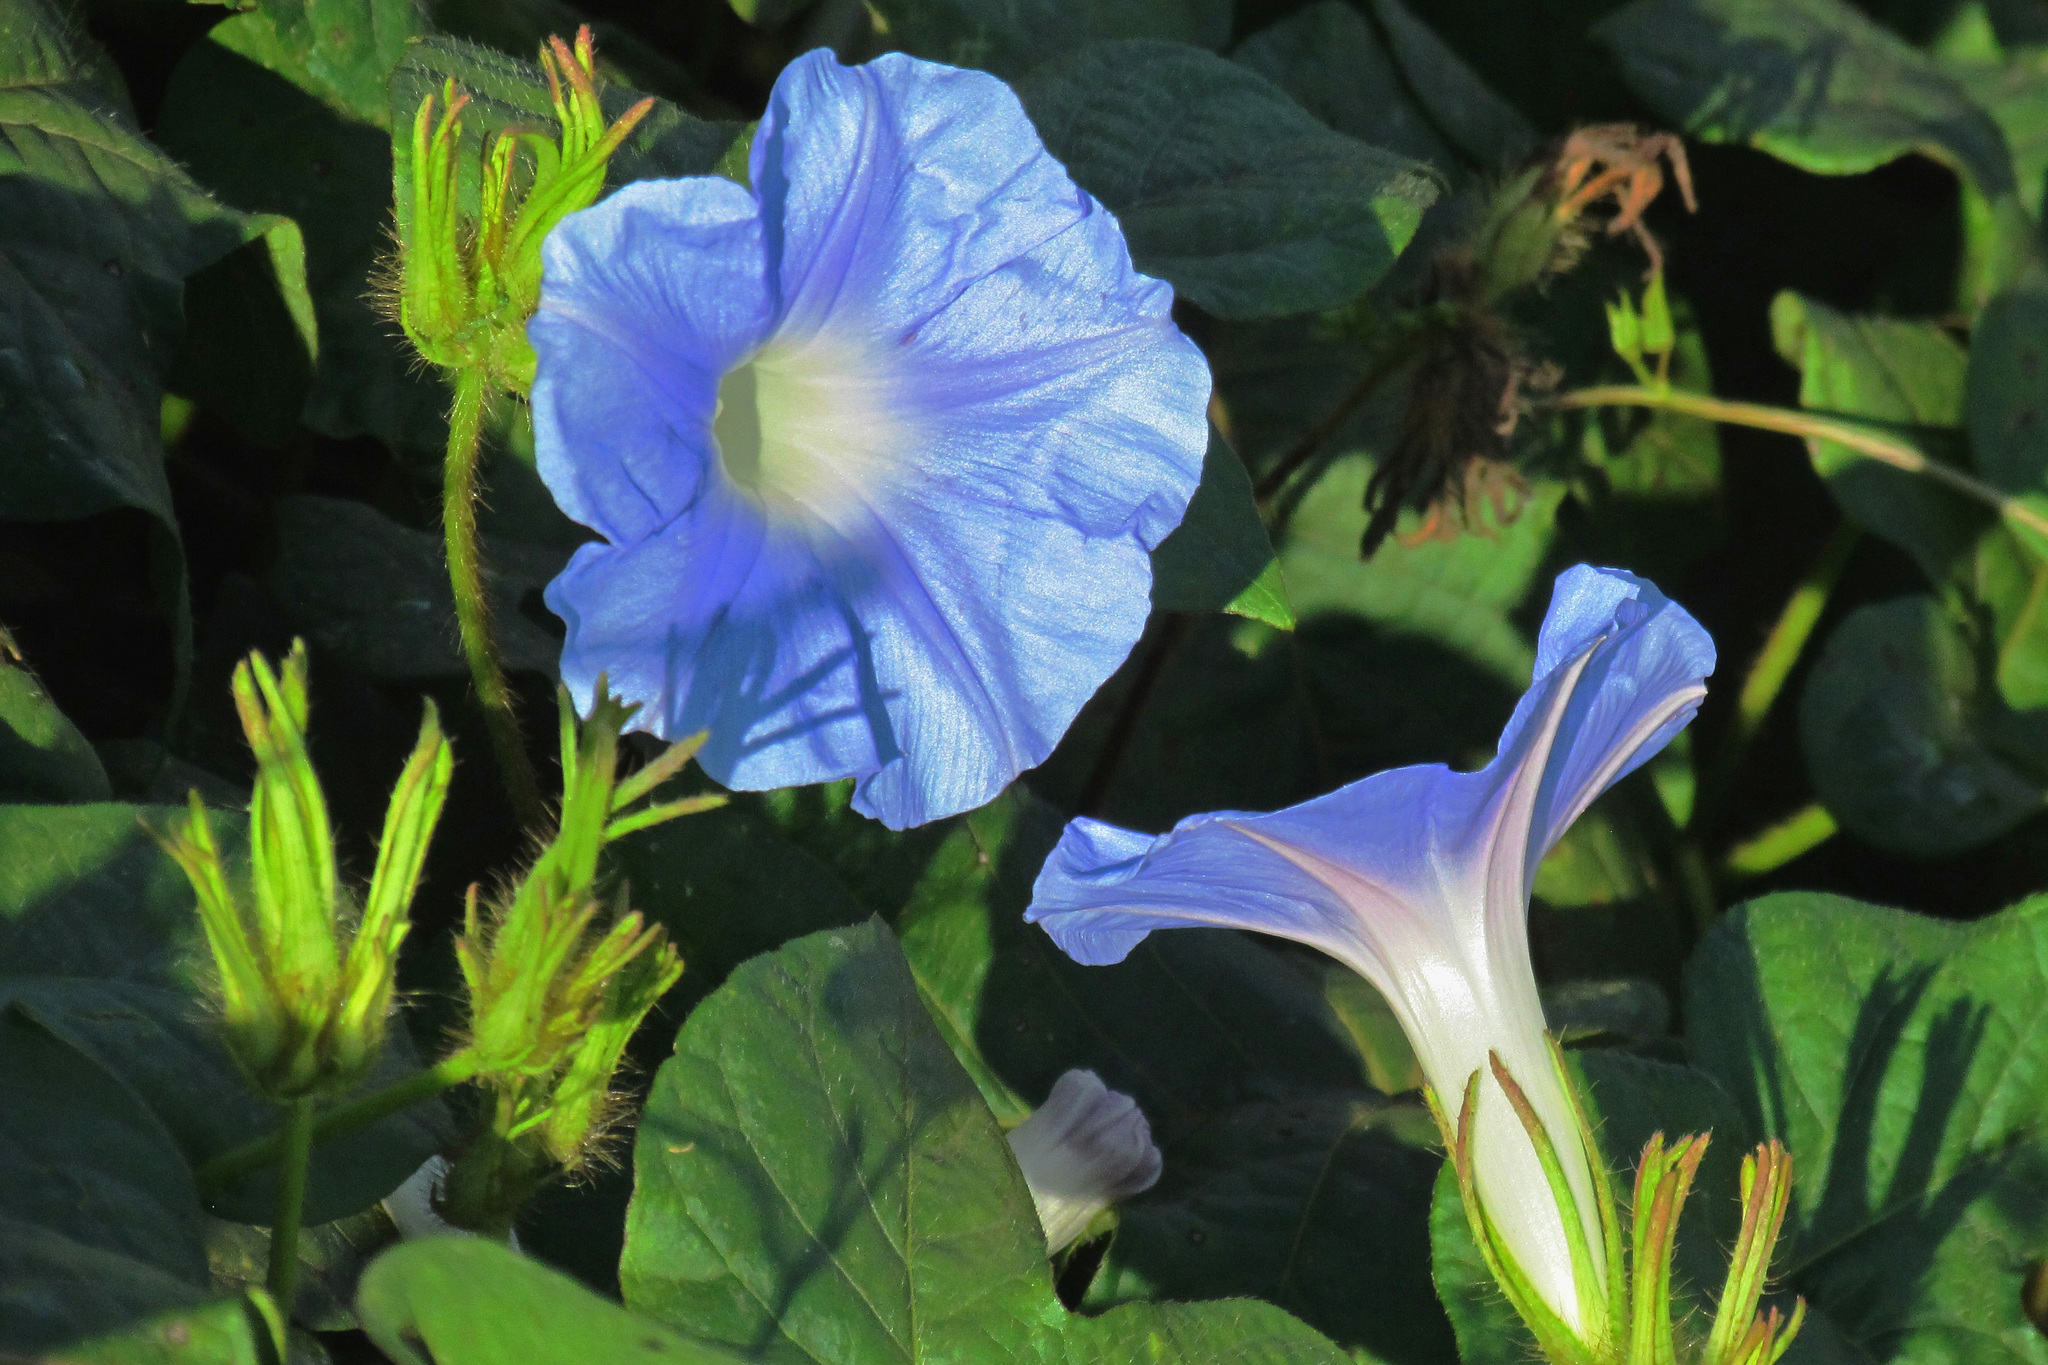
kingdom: Plantae
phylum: Tracheophyta
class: Magnoliopsida
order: Solanales
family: Convolvulaceae
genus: Ipomoea
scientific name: Ipomoea nil
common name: Japanese morning-glory
